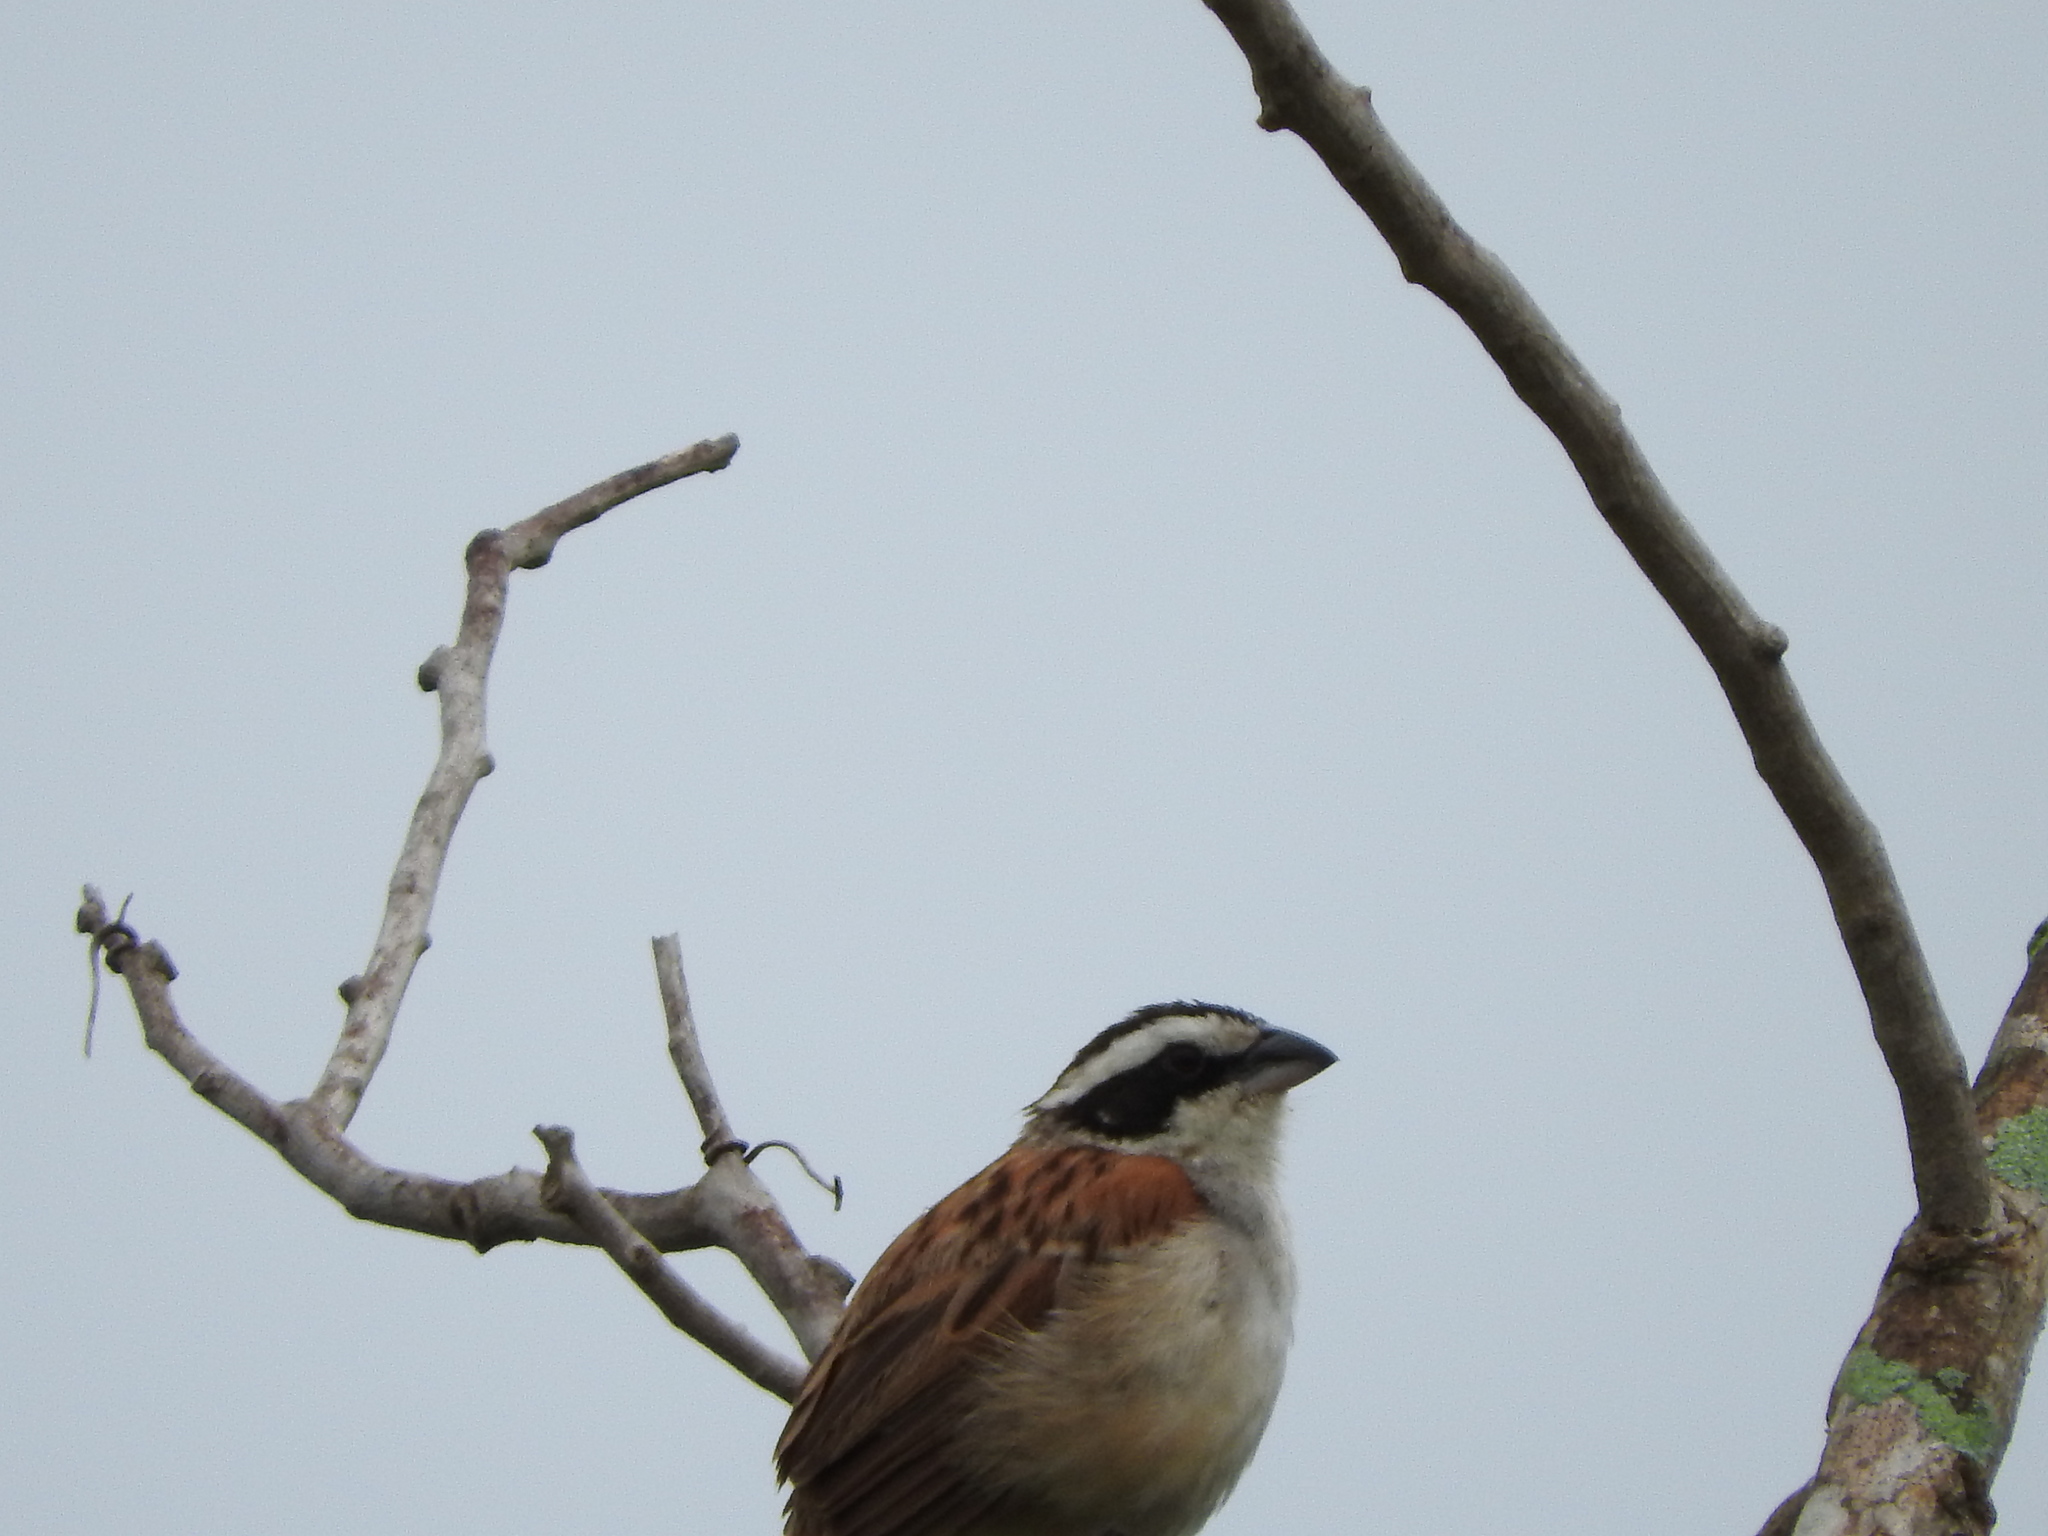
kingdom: Animalia
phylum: Chordata
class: Aves
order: Passeriformes
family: Passerellidae
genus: Peucaea
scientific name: Peucaea ruficauda
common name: Stripe-headed sparrow
